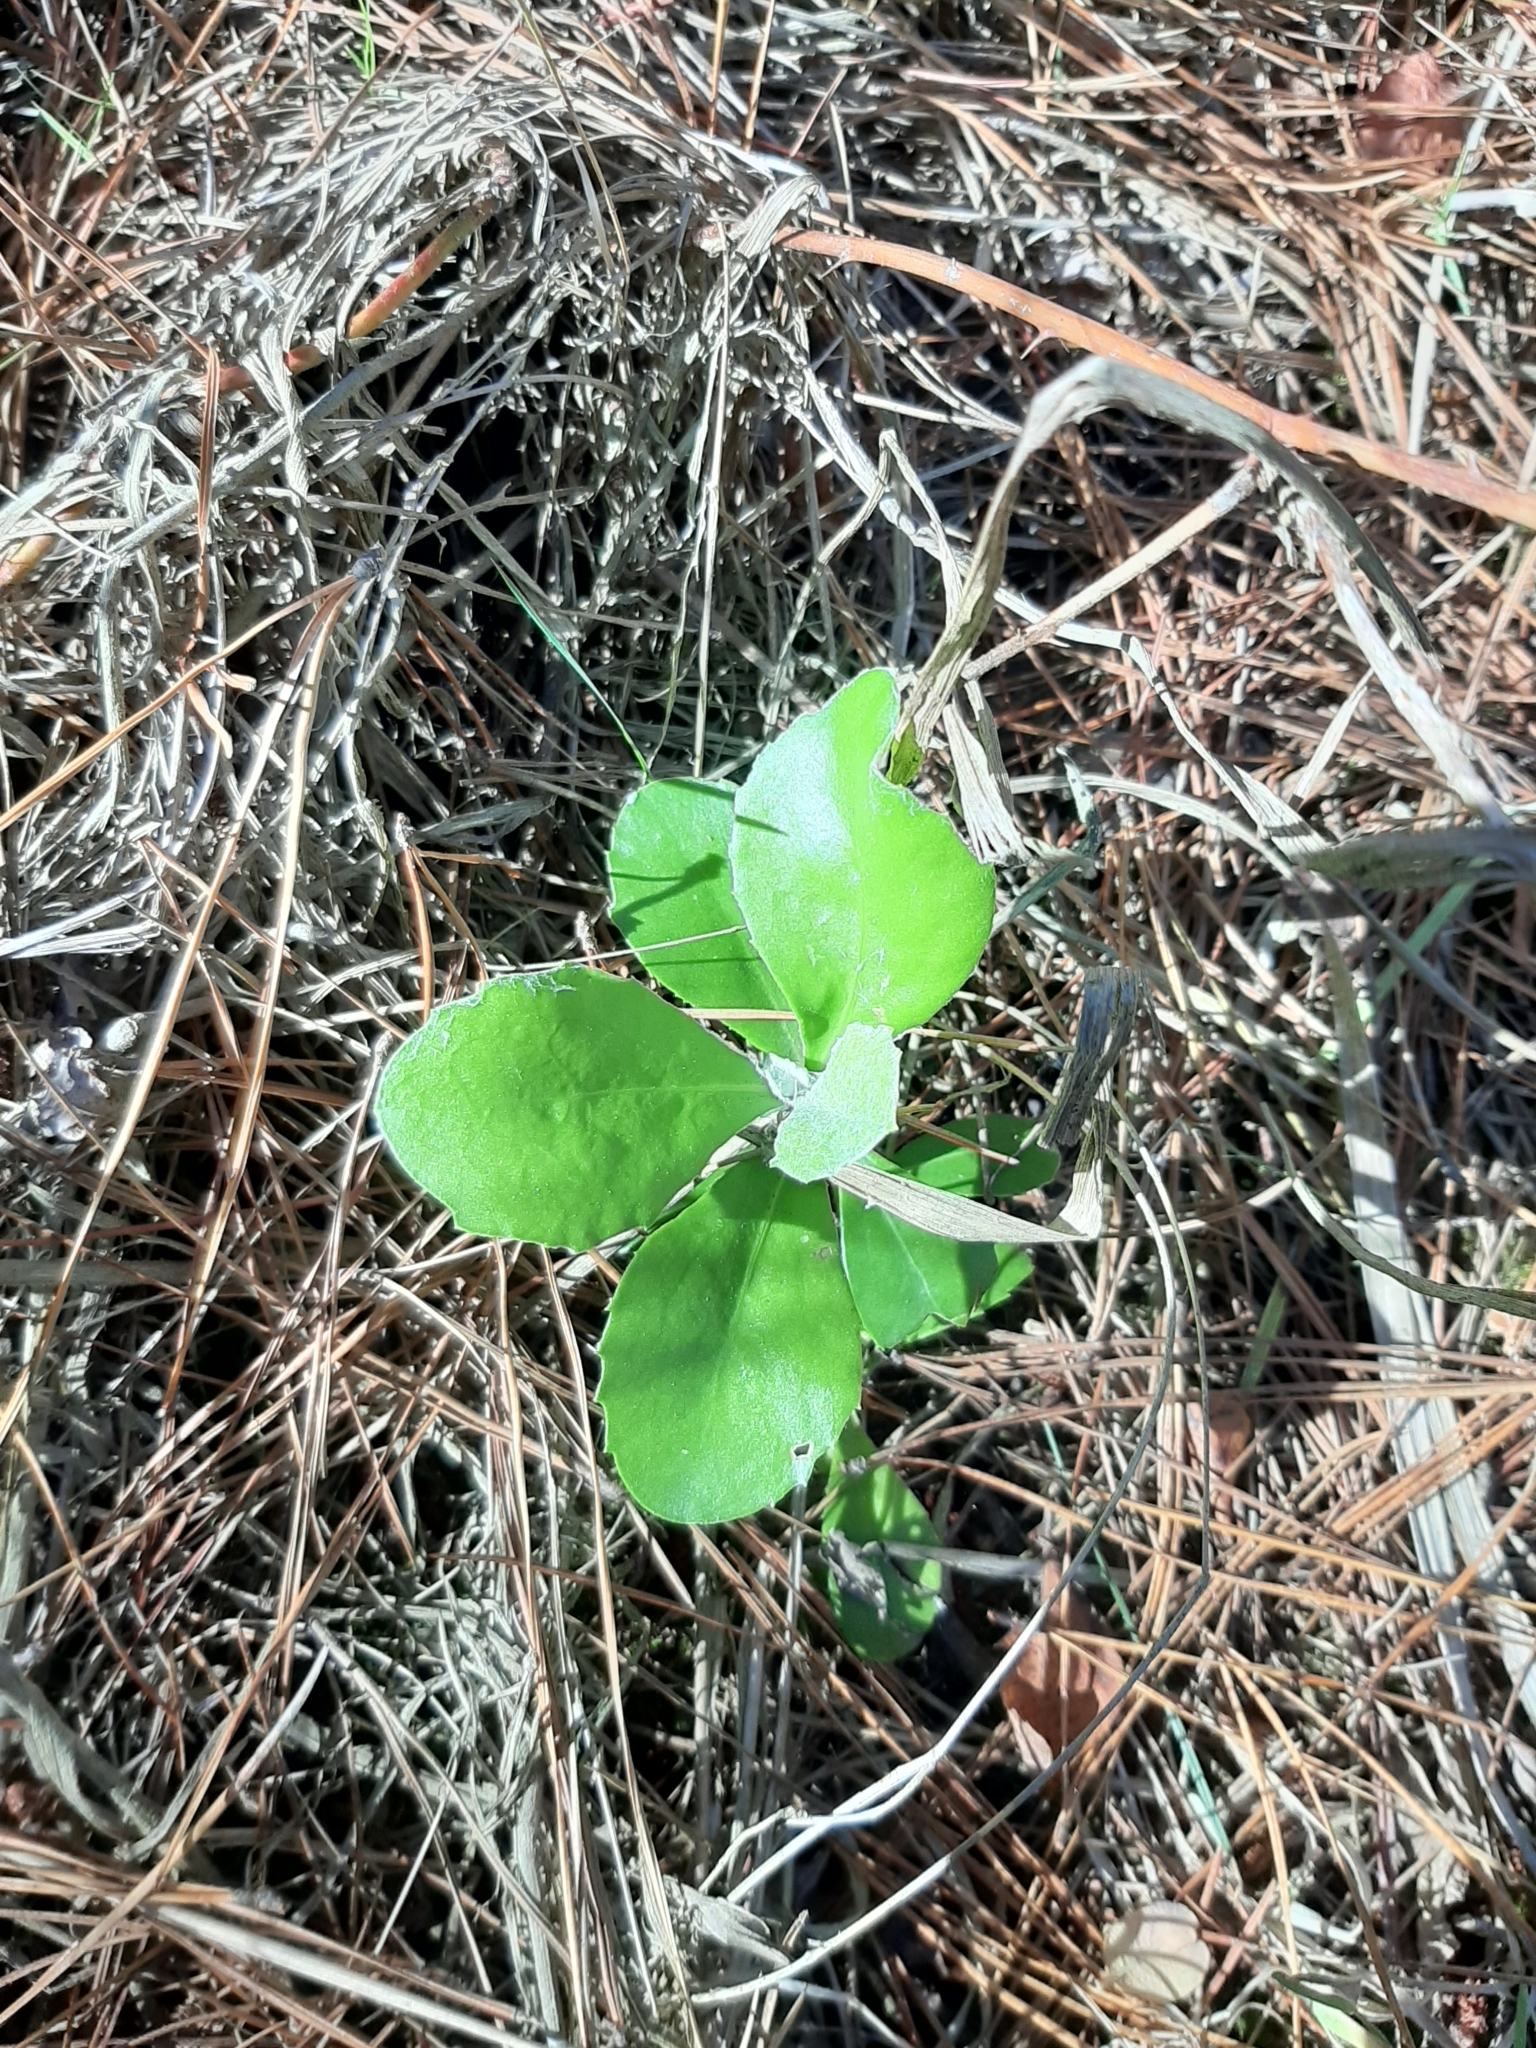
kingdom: Plantae
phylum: Tracheophyta
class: Magnoliopsida
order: Asterales
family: Asteraceae
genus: Osteospermum
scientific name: Osteospermum moniliferum
